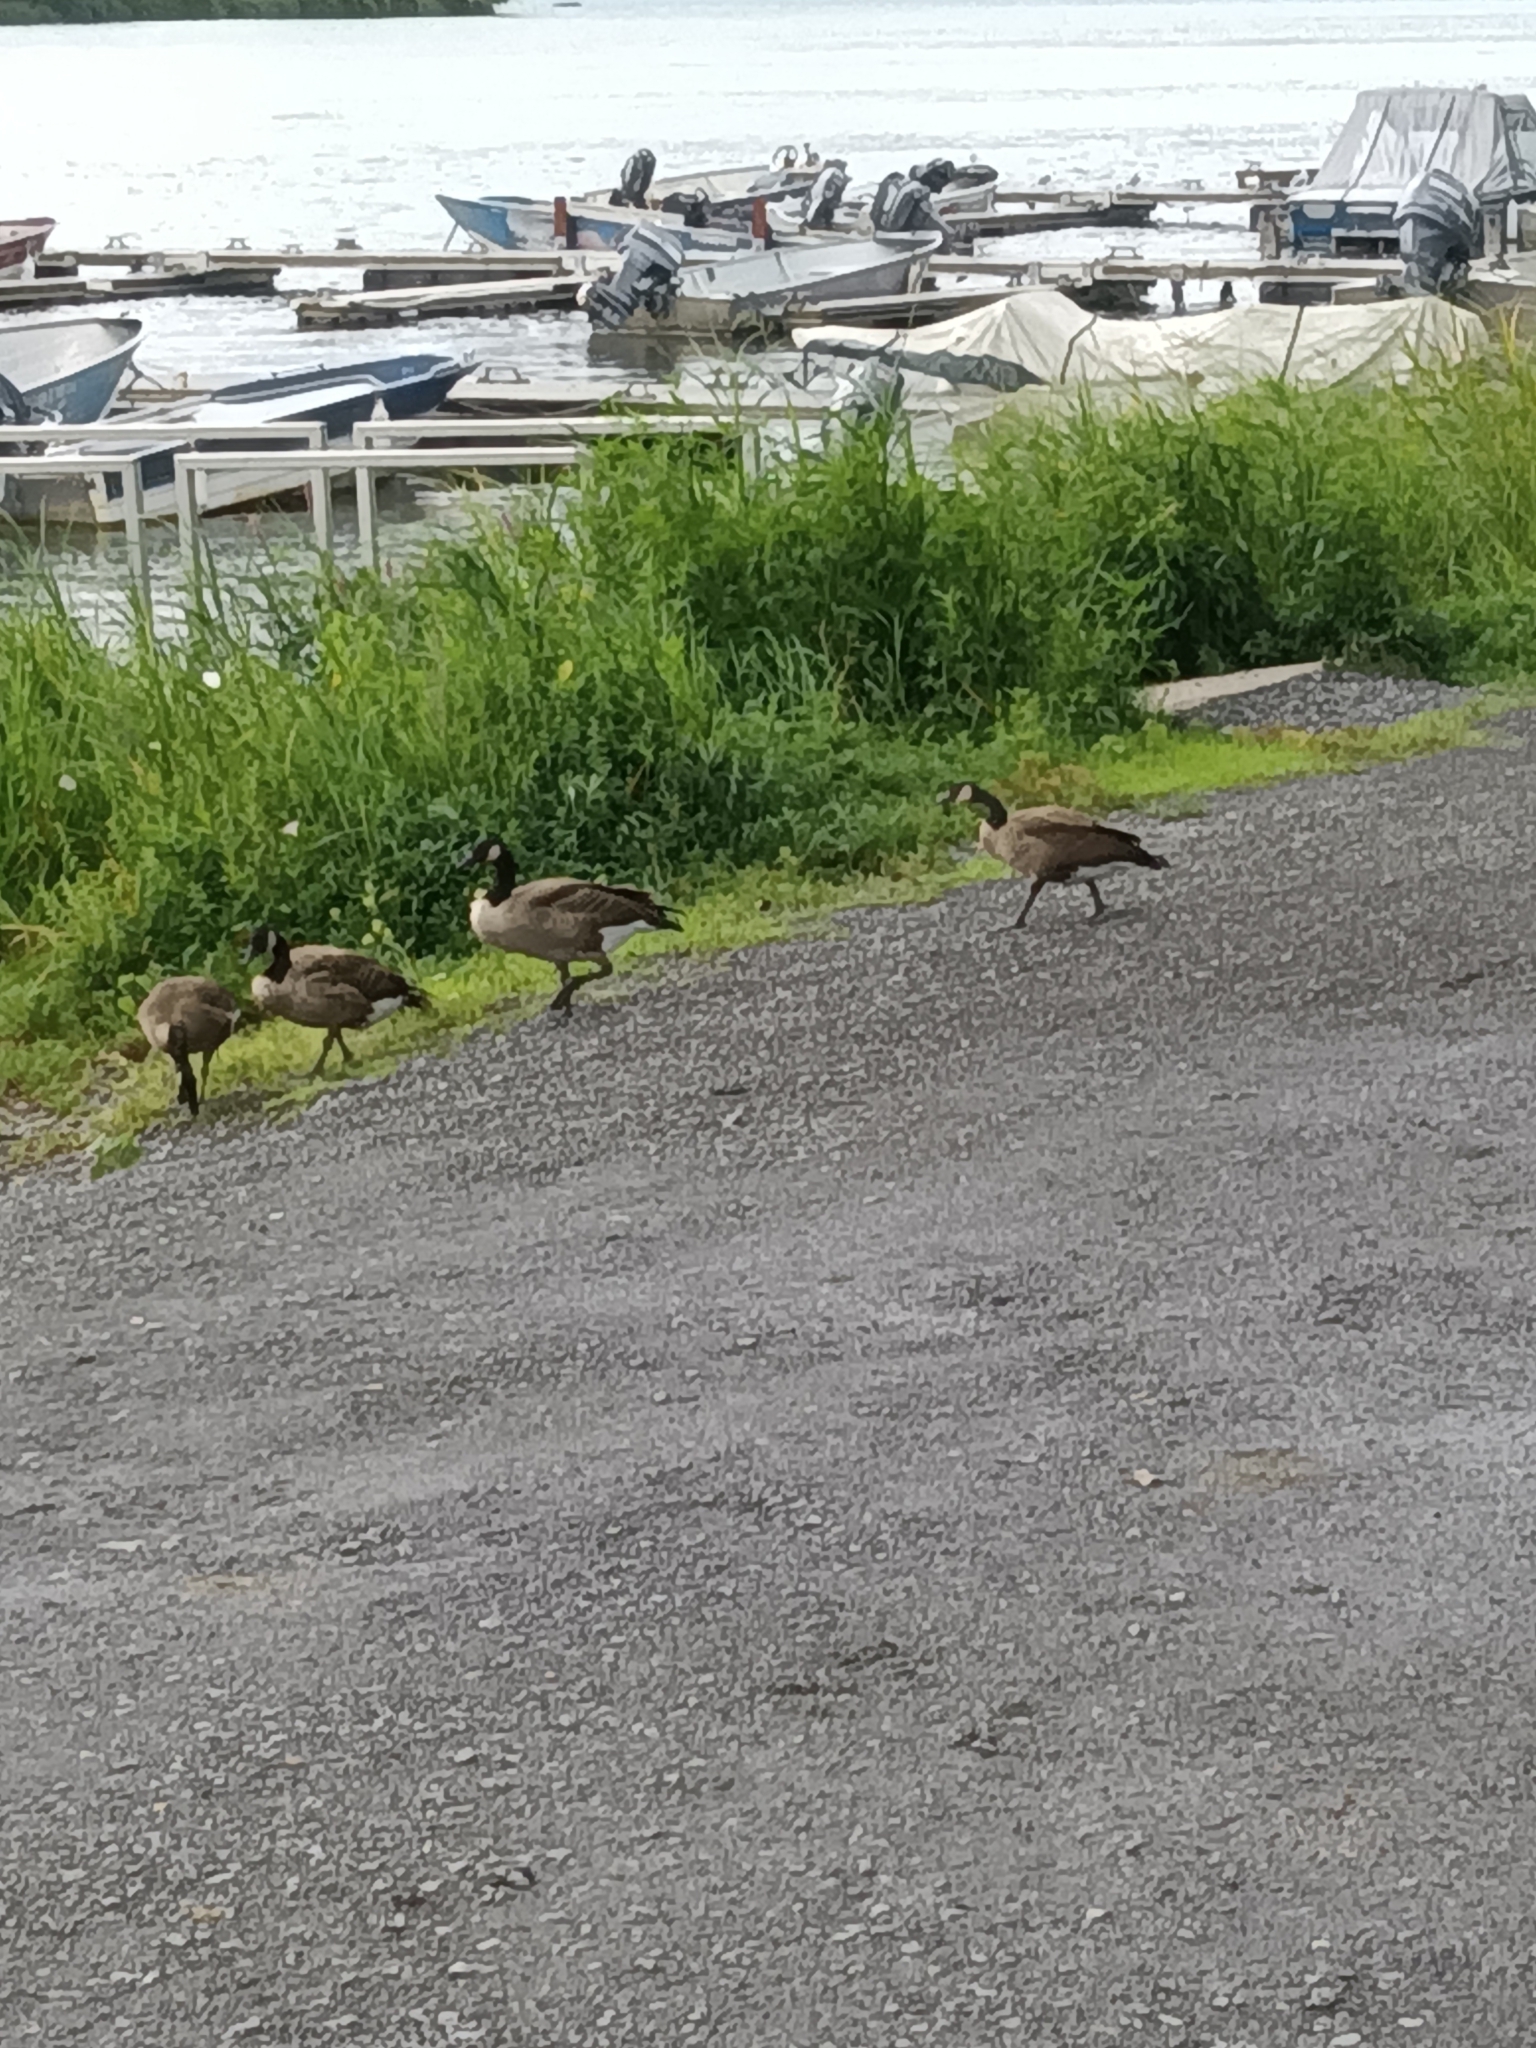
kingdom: Animalia
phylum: Chordata
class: Aves
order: Anseriformes
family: Anatidae
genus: Branta
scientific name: Branta canadensis
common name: Canada goose
